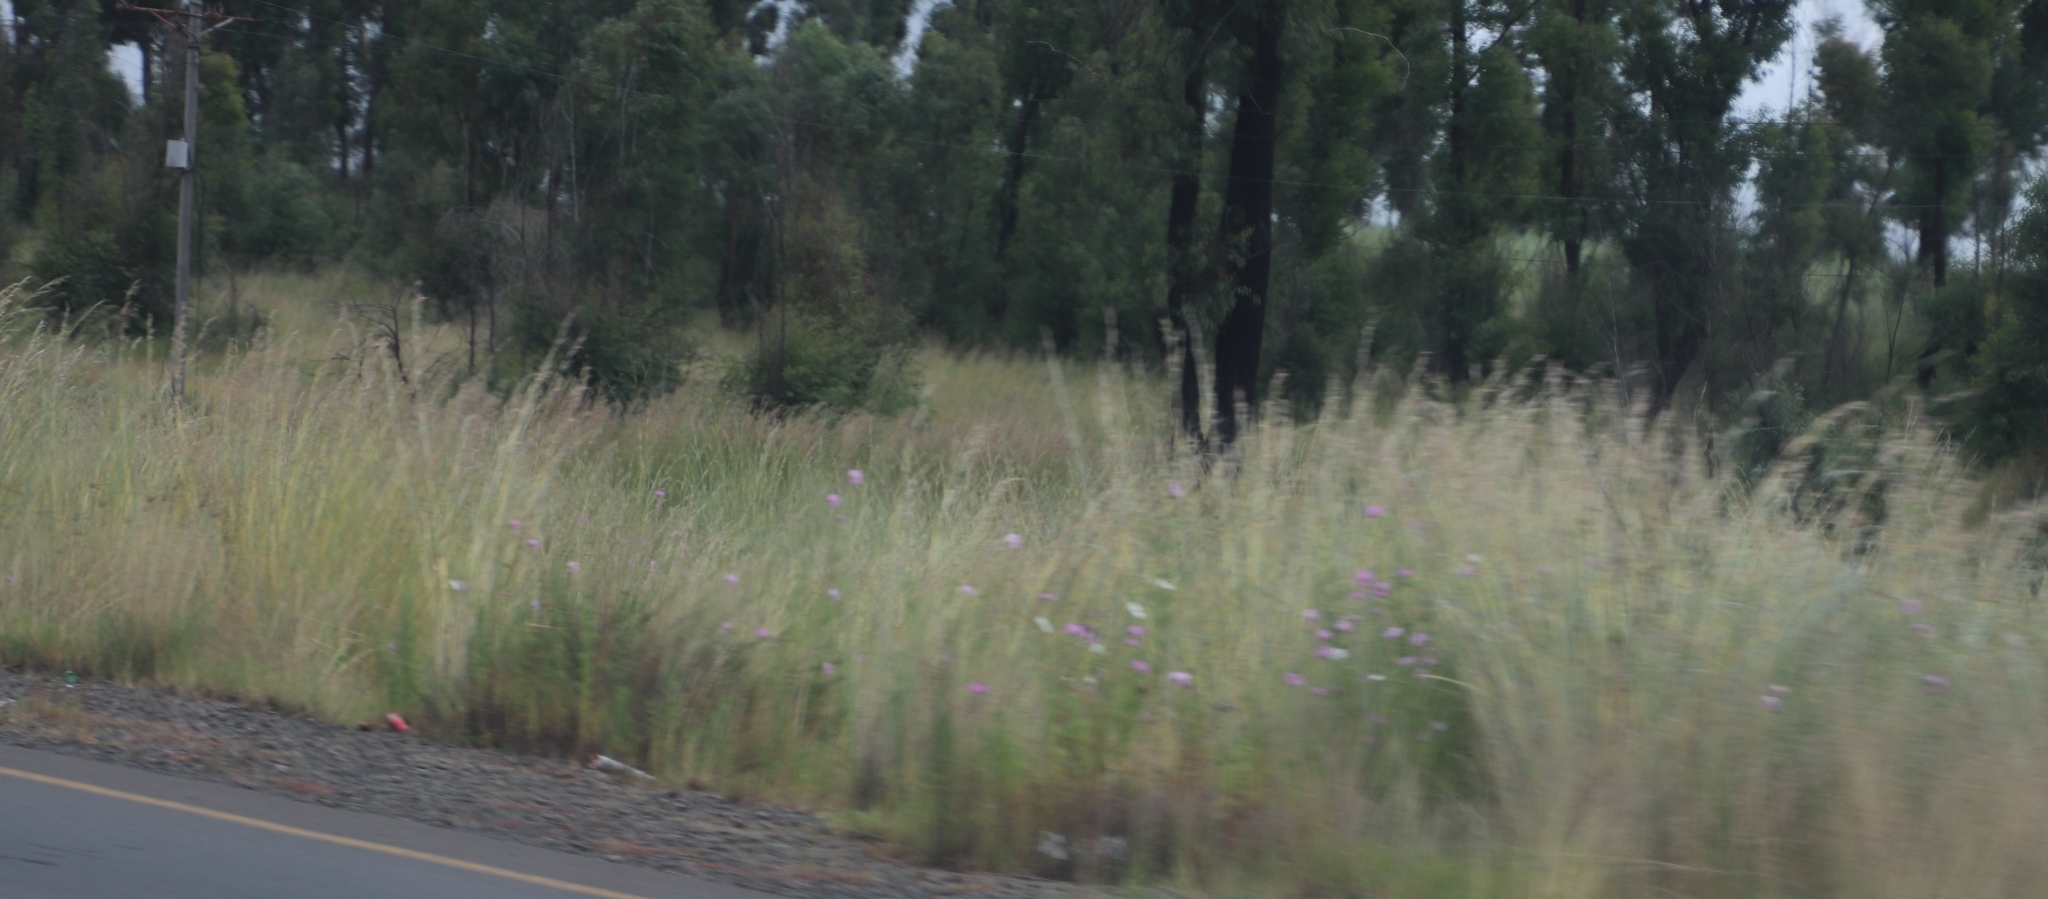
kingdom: Plantae
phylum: Tracheophyta
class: Magnoliopsida
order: Asterales
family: Asteraceae
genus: Cosmos
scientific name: Cosmos bipinnatus
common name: Garden cosmos
